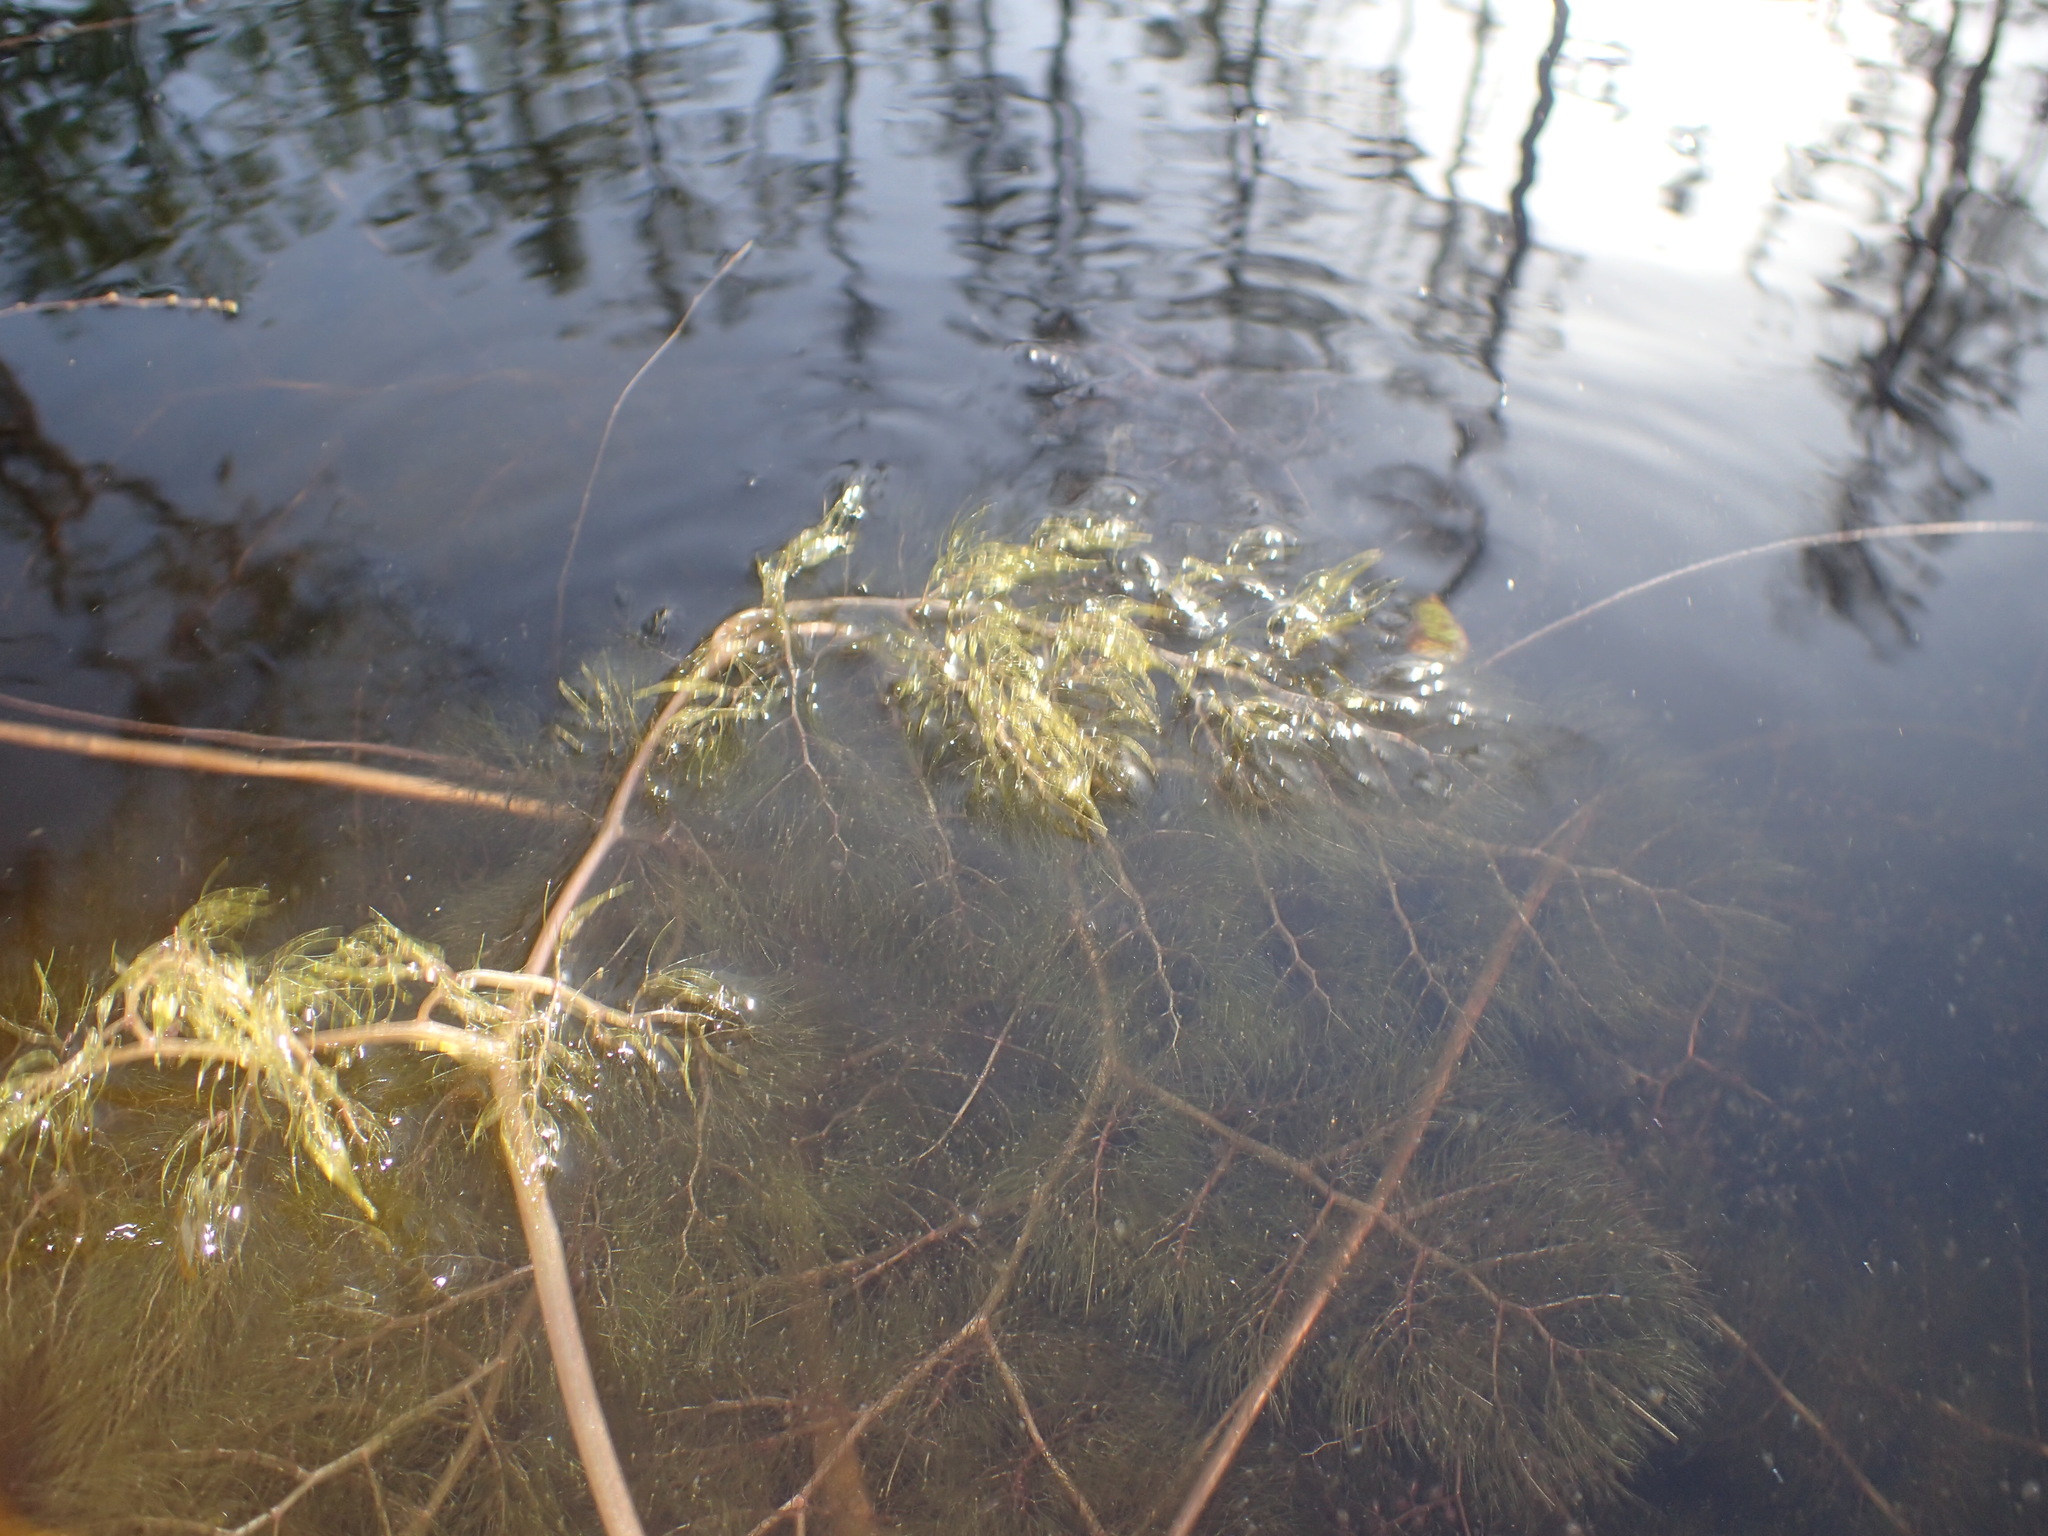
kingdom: Plantae
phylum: Tracheophyta
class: Magnoliopsida
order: Lamiales
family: Lentibulariaceae
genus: Utricularia
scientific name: Utricularia foliosa
